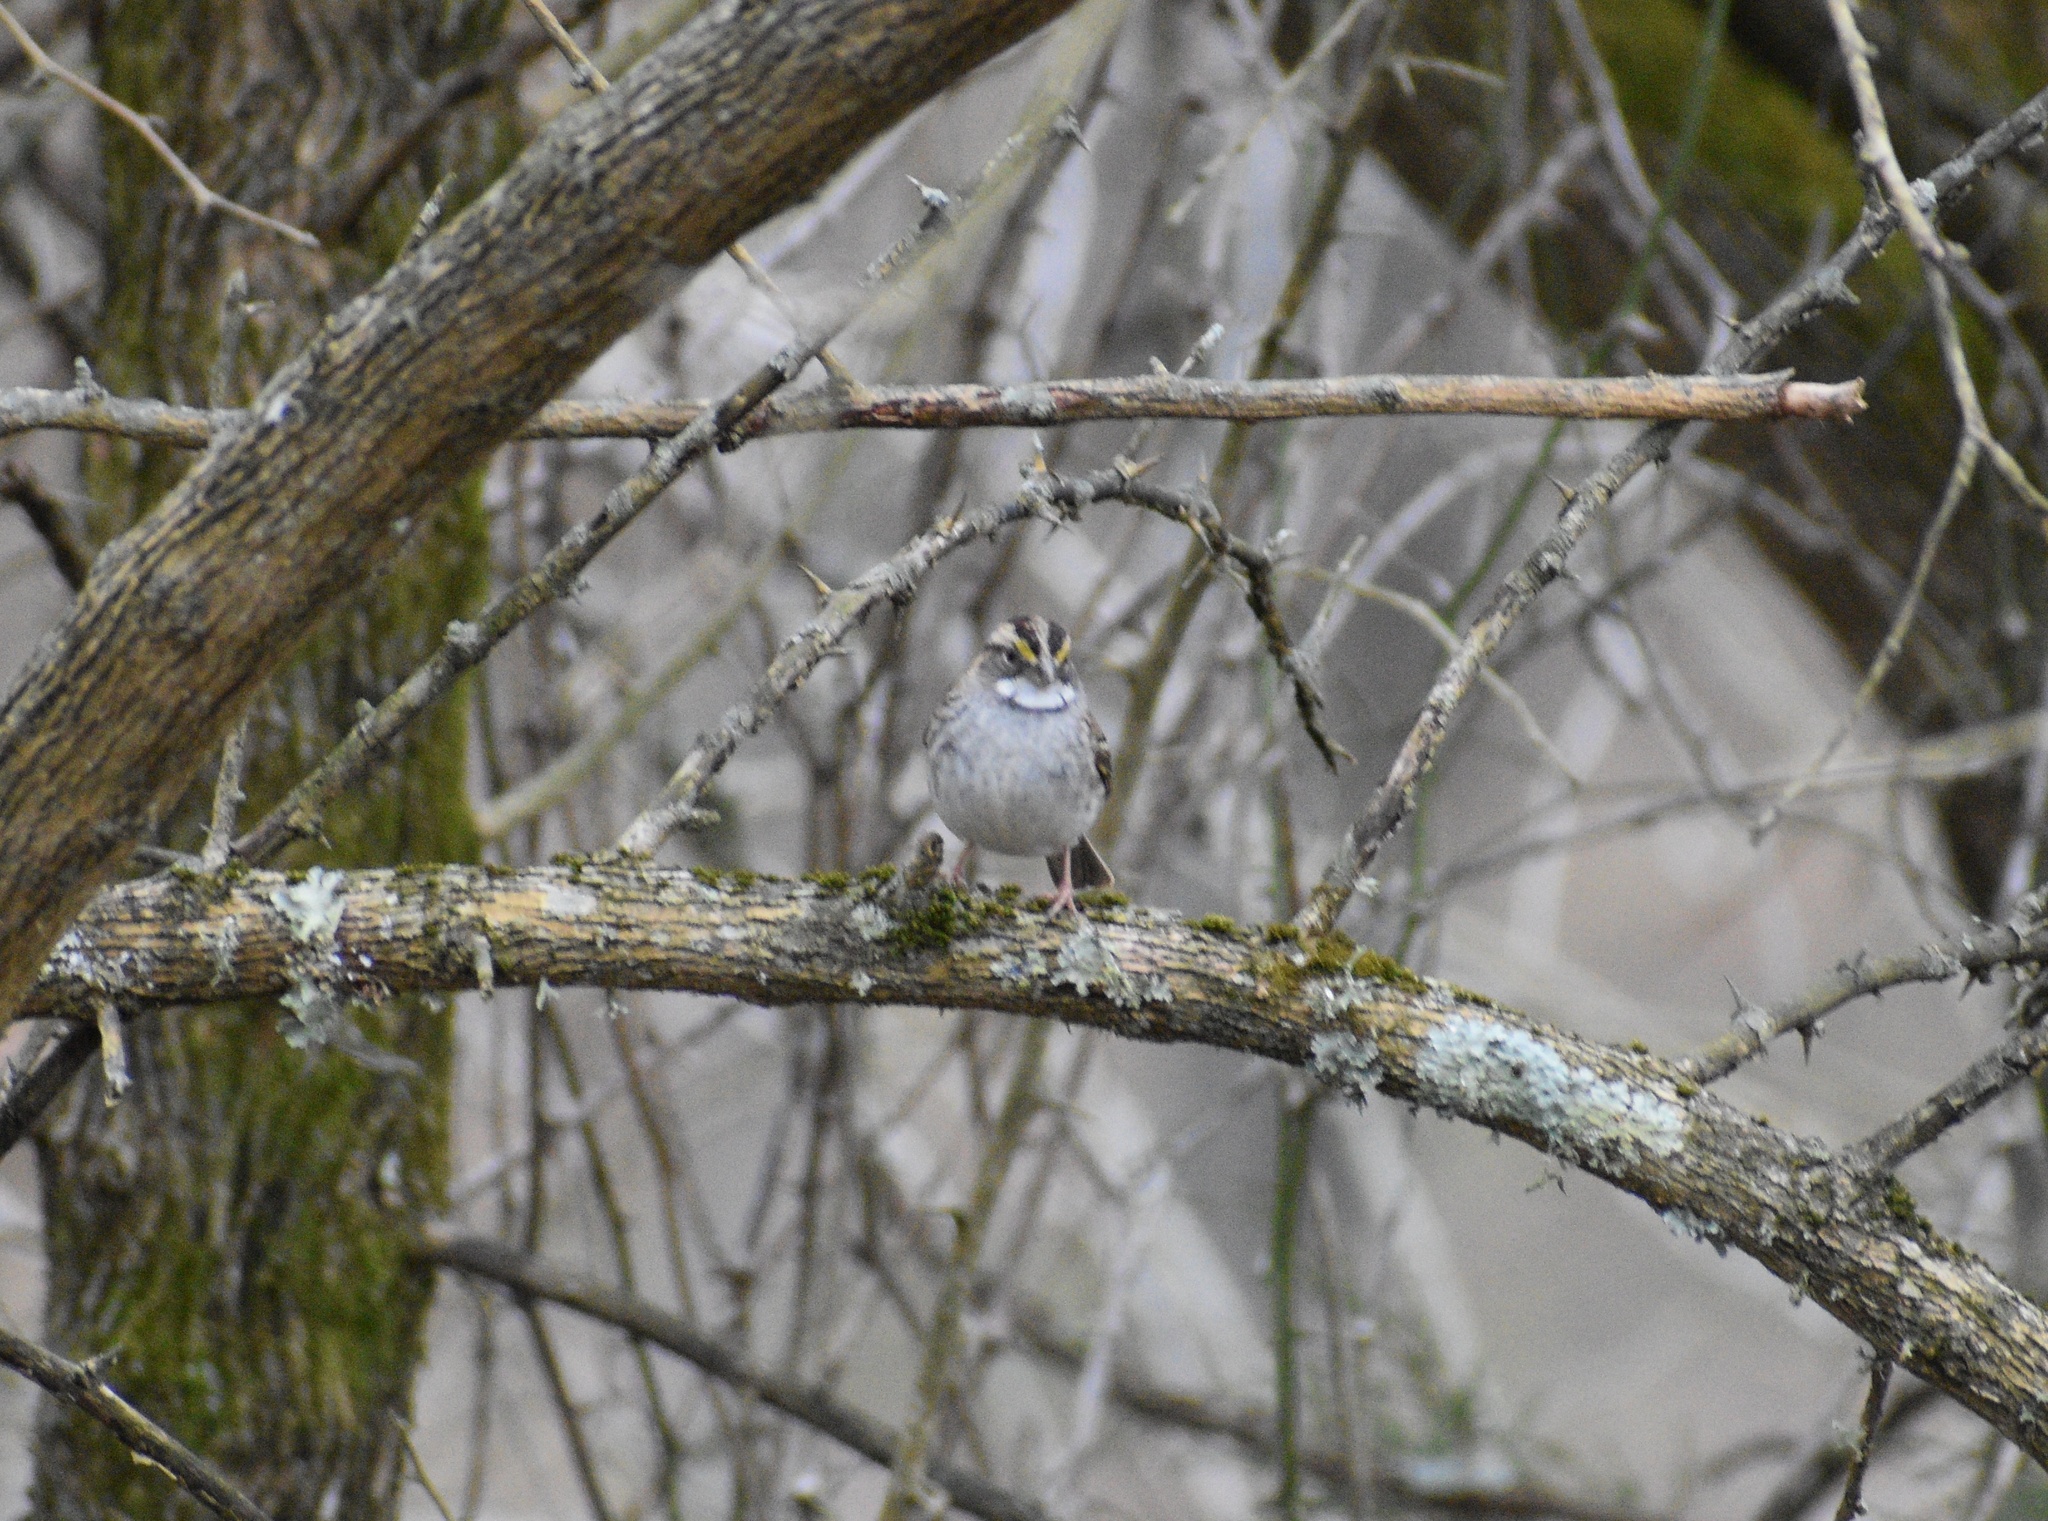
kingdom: Animalia
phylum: Chordata
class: Aves
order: Passeriformes
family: Passerellidae
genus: Zonotrichia
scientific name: Zonotrichia albicollis
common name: White-throated sparrow
